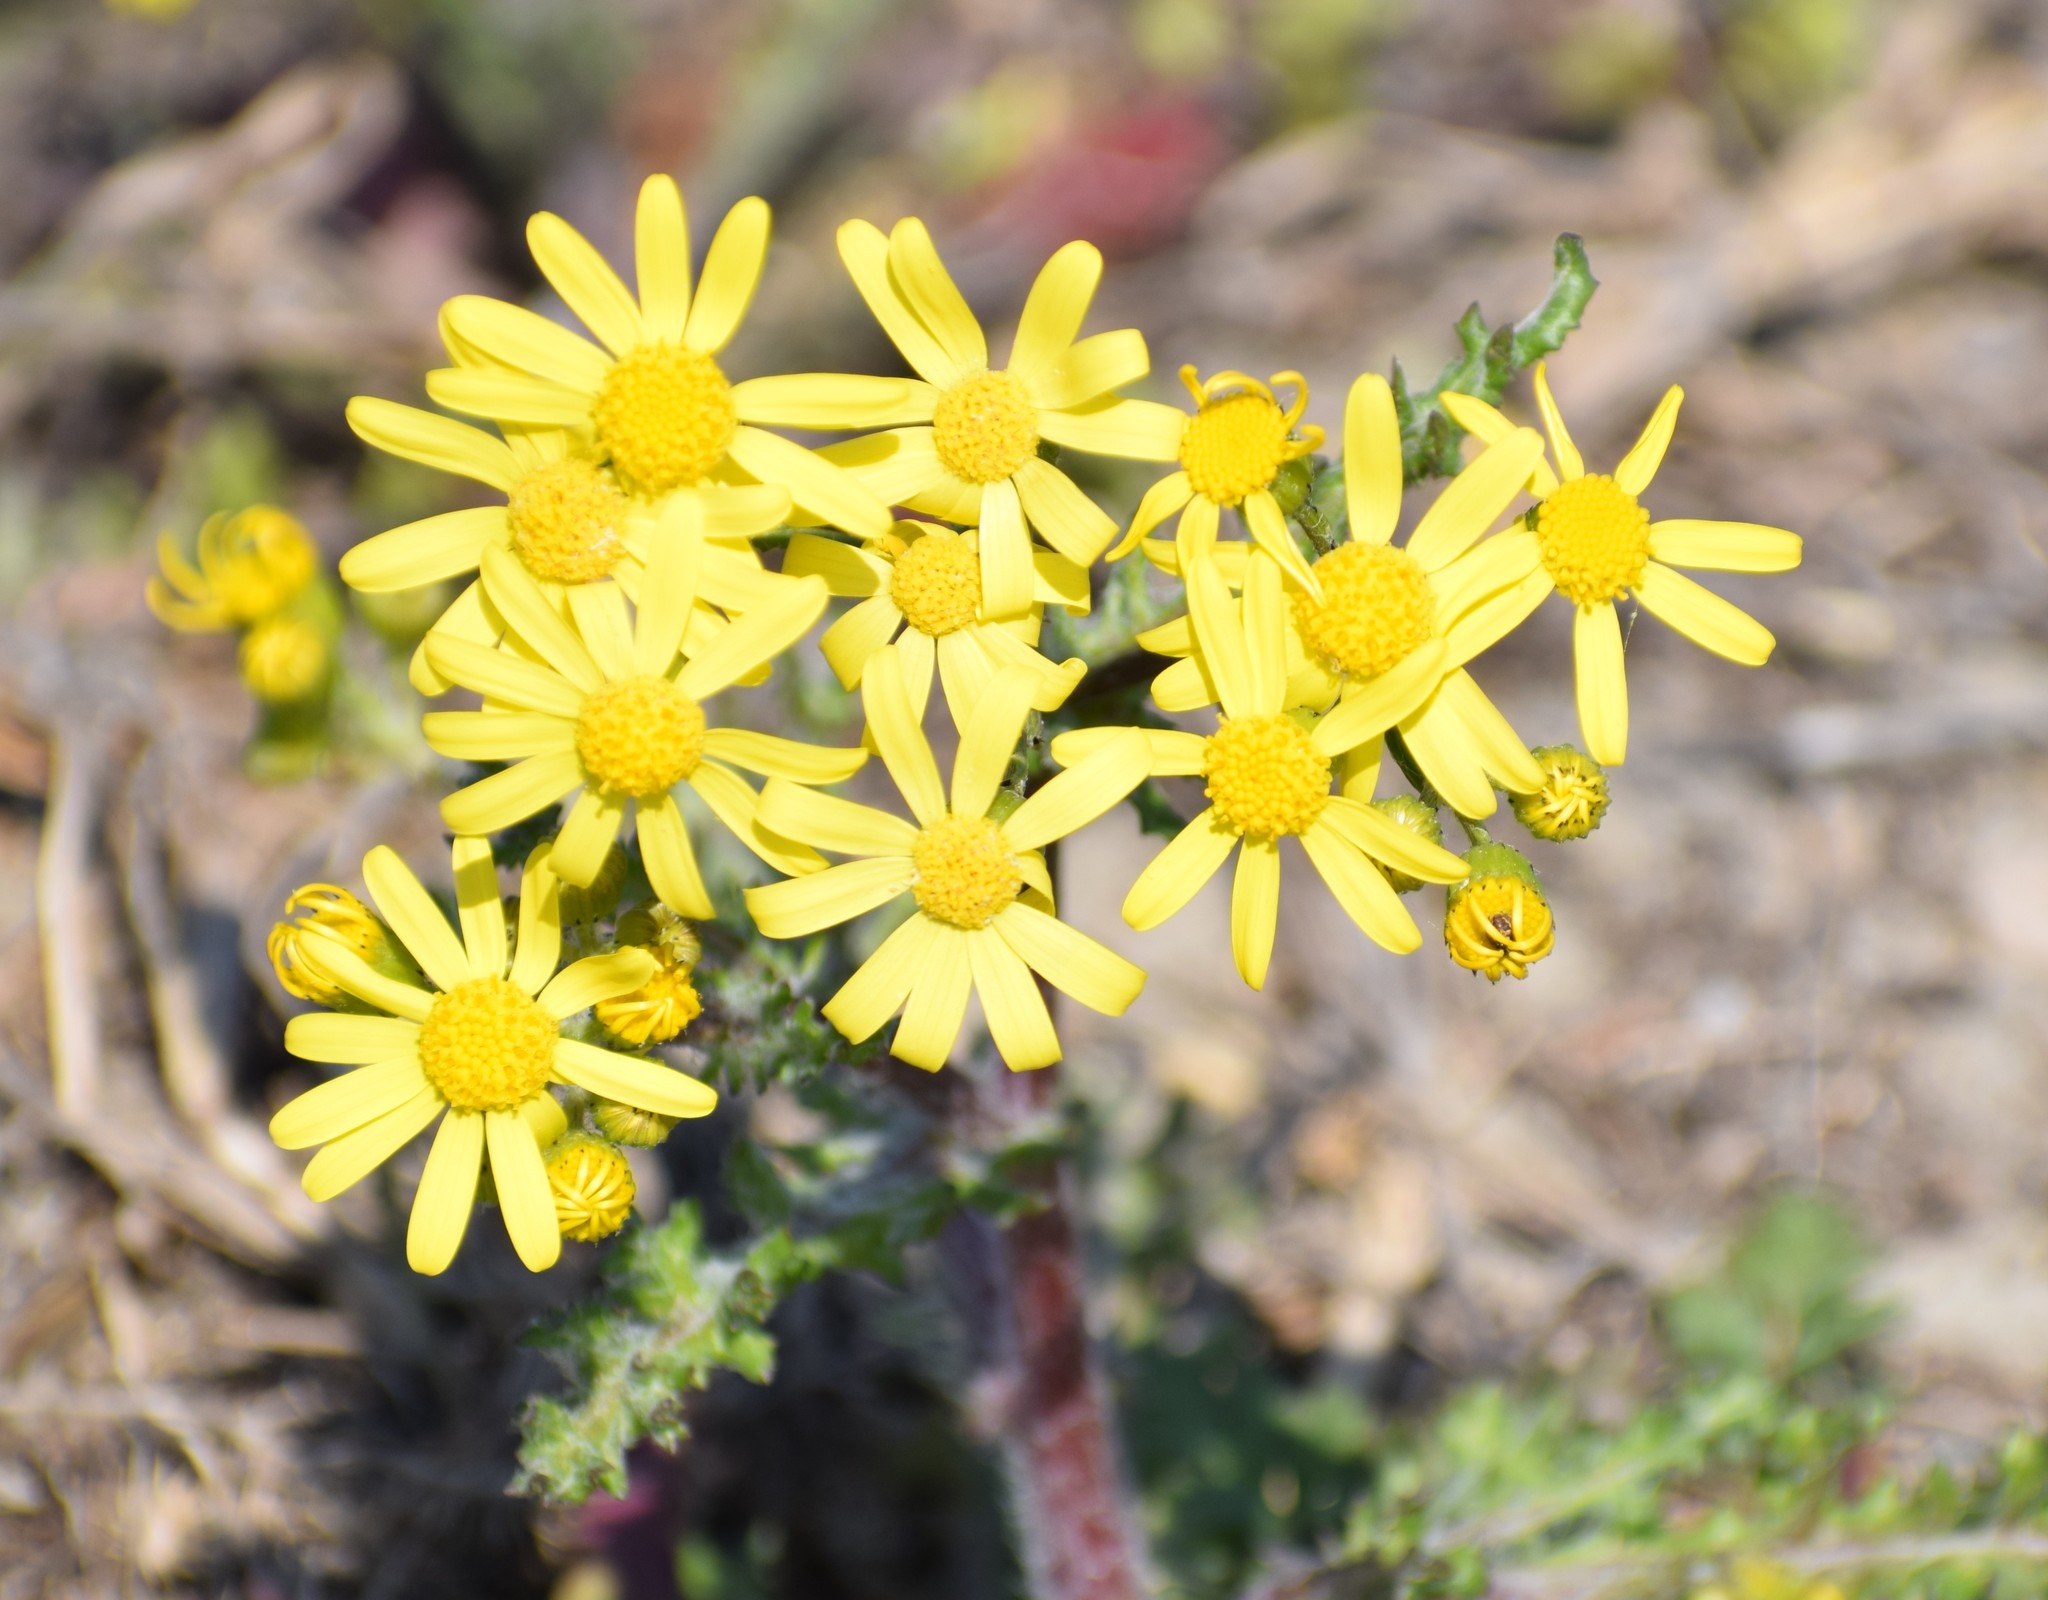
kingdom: Plantae
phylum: Tracheophyta
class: Magnoliopsida
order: Asterales
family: Asteraceae
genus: Senecio
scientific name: Senecio vernalis
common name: Eastern groundsel
